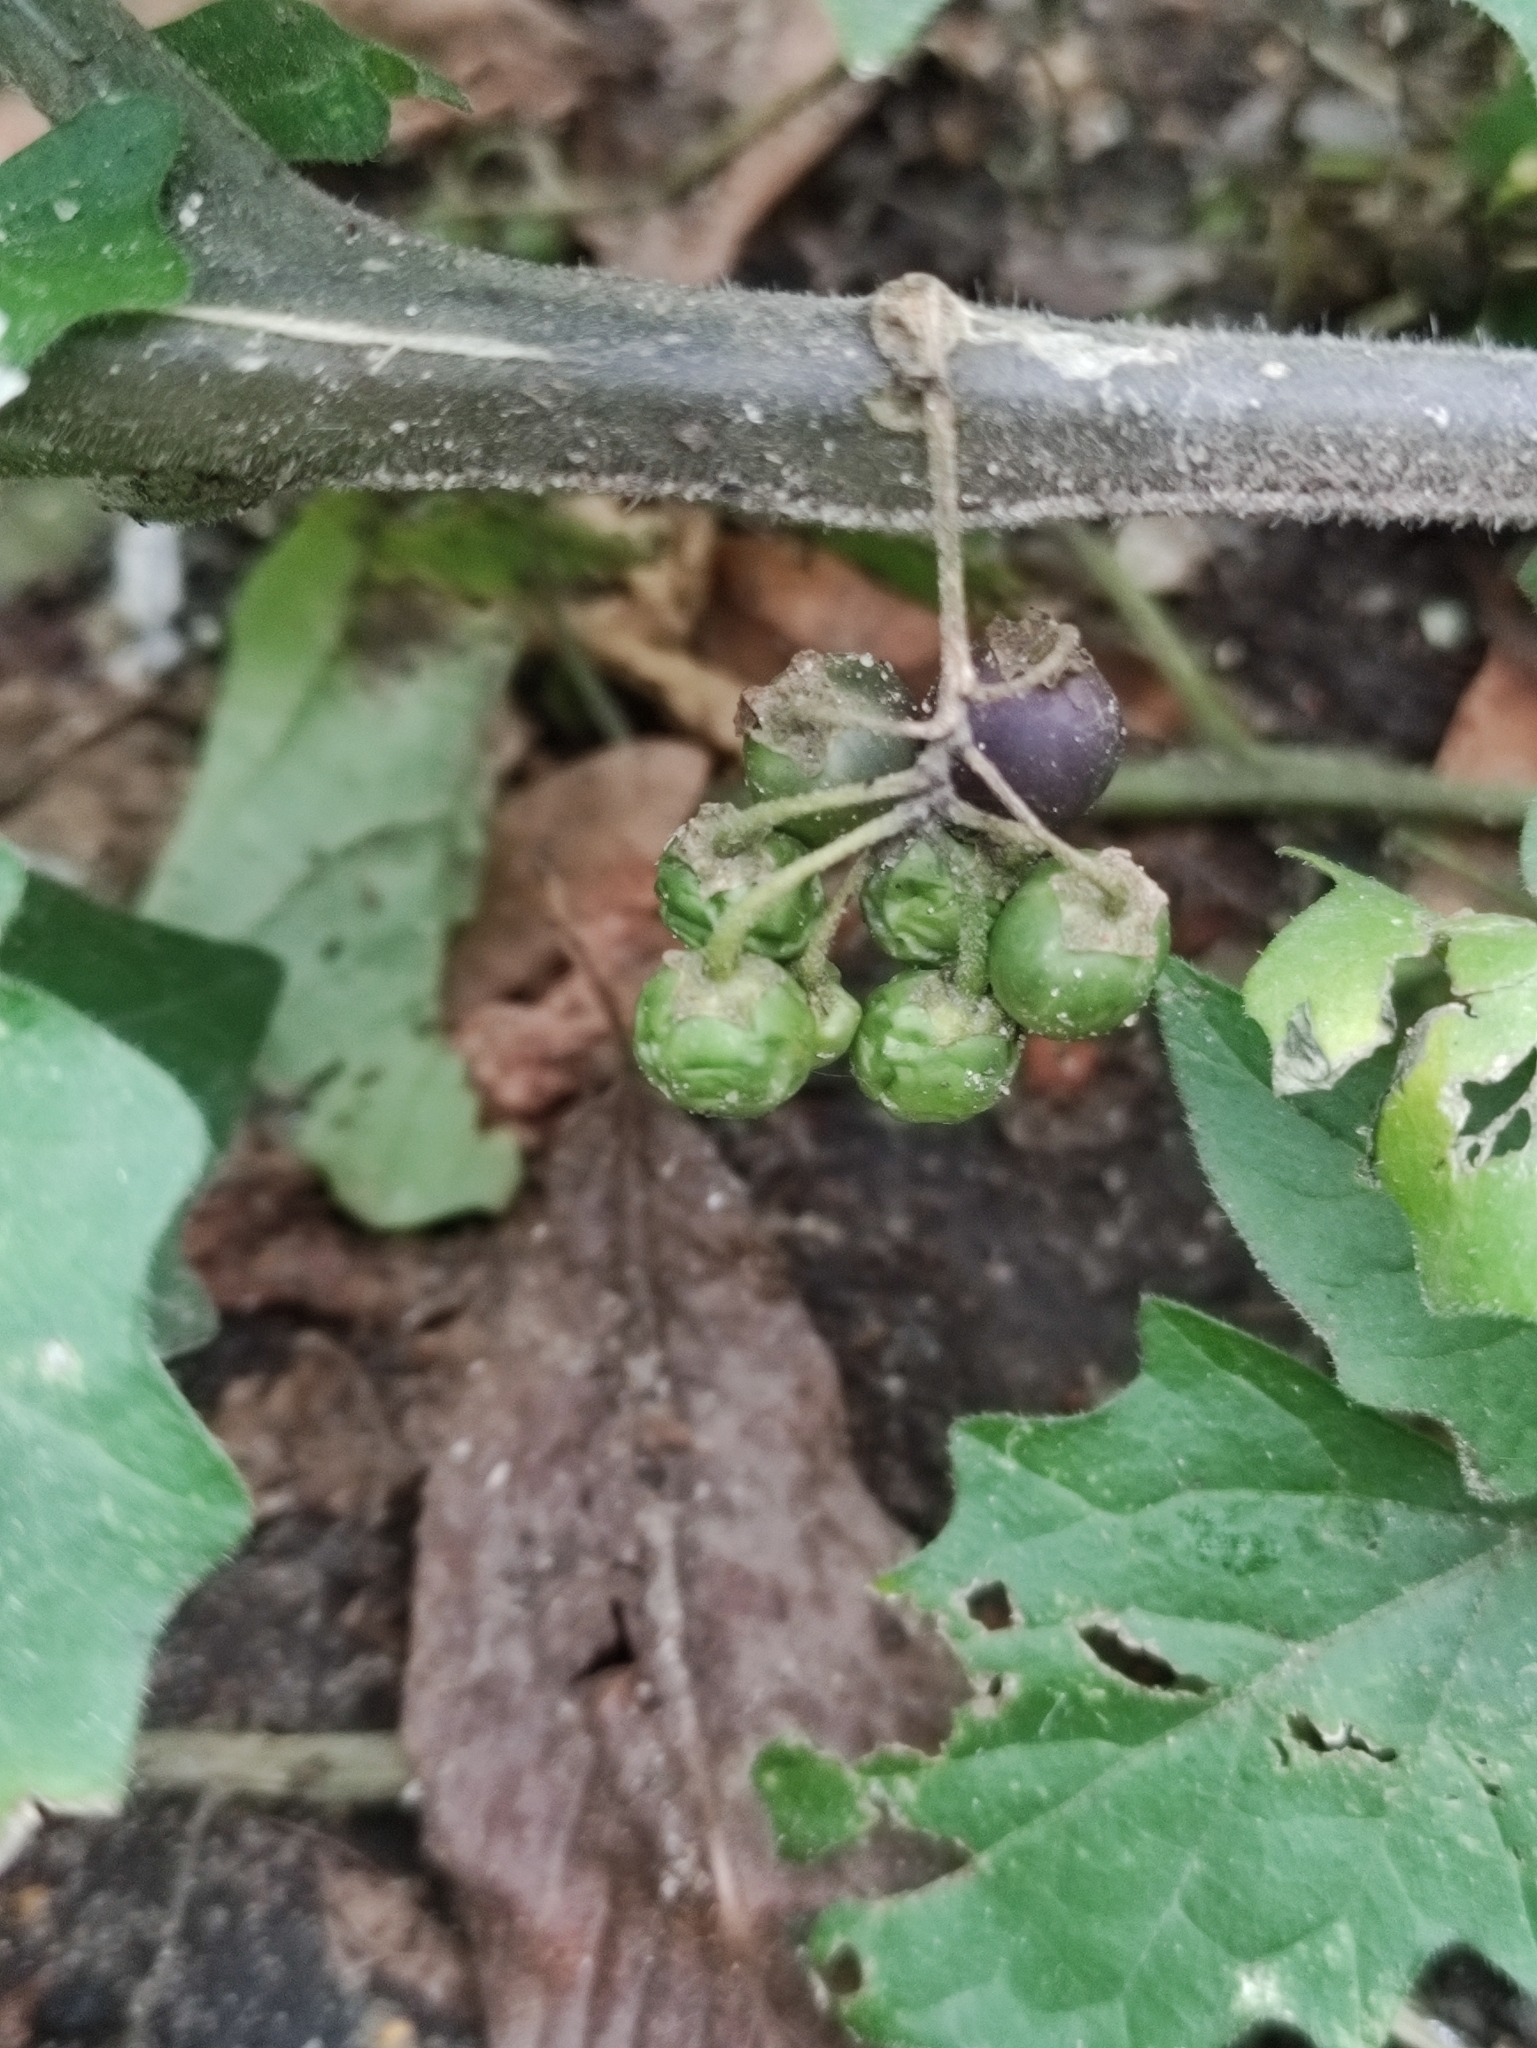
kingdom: Plantae
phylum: Tracheophyta
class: Magnoliopsida
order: Solanales
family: Solanaceae
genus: Solanum
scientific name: Solanum nigrum
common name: Black nightshade
